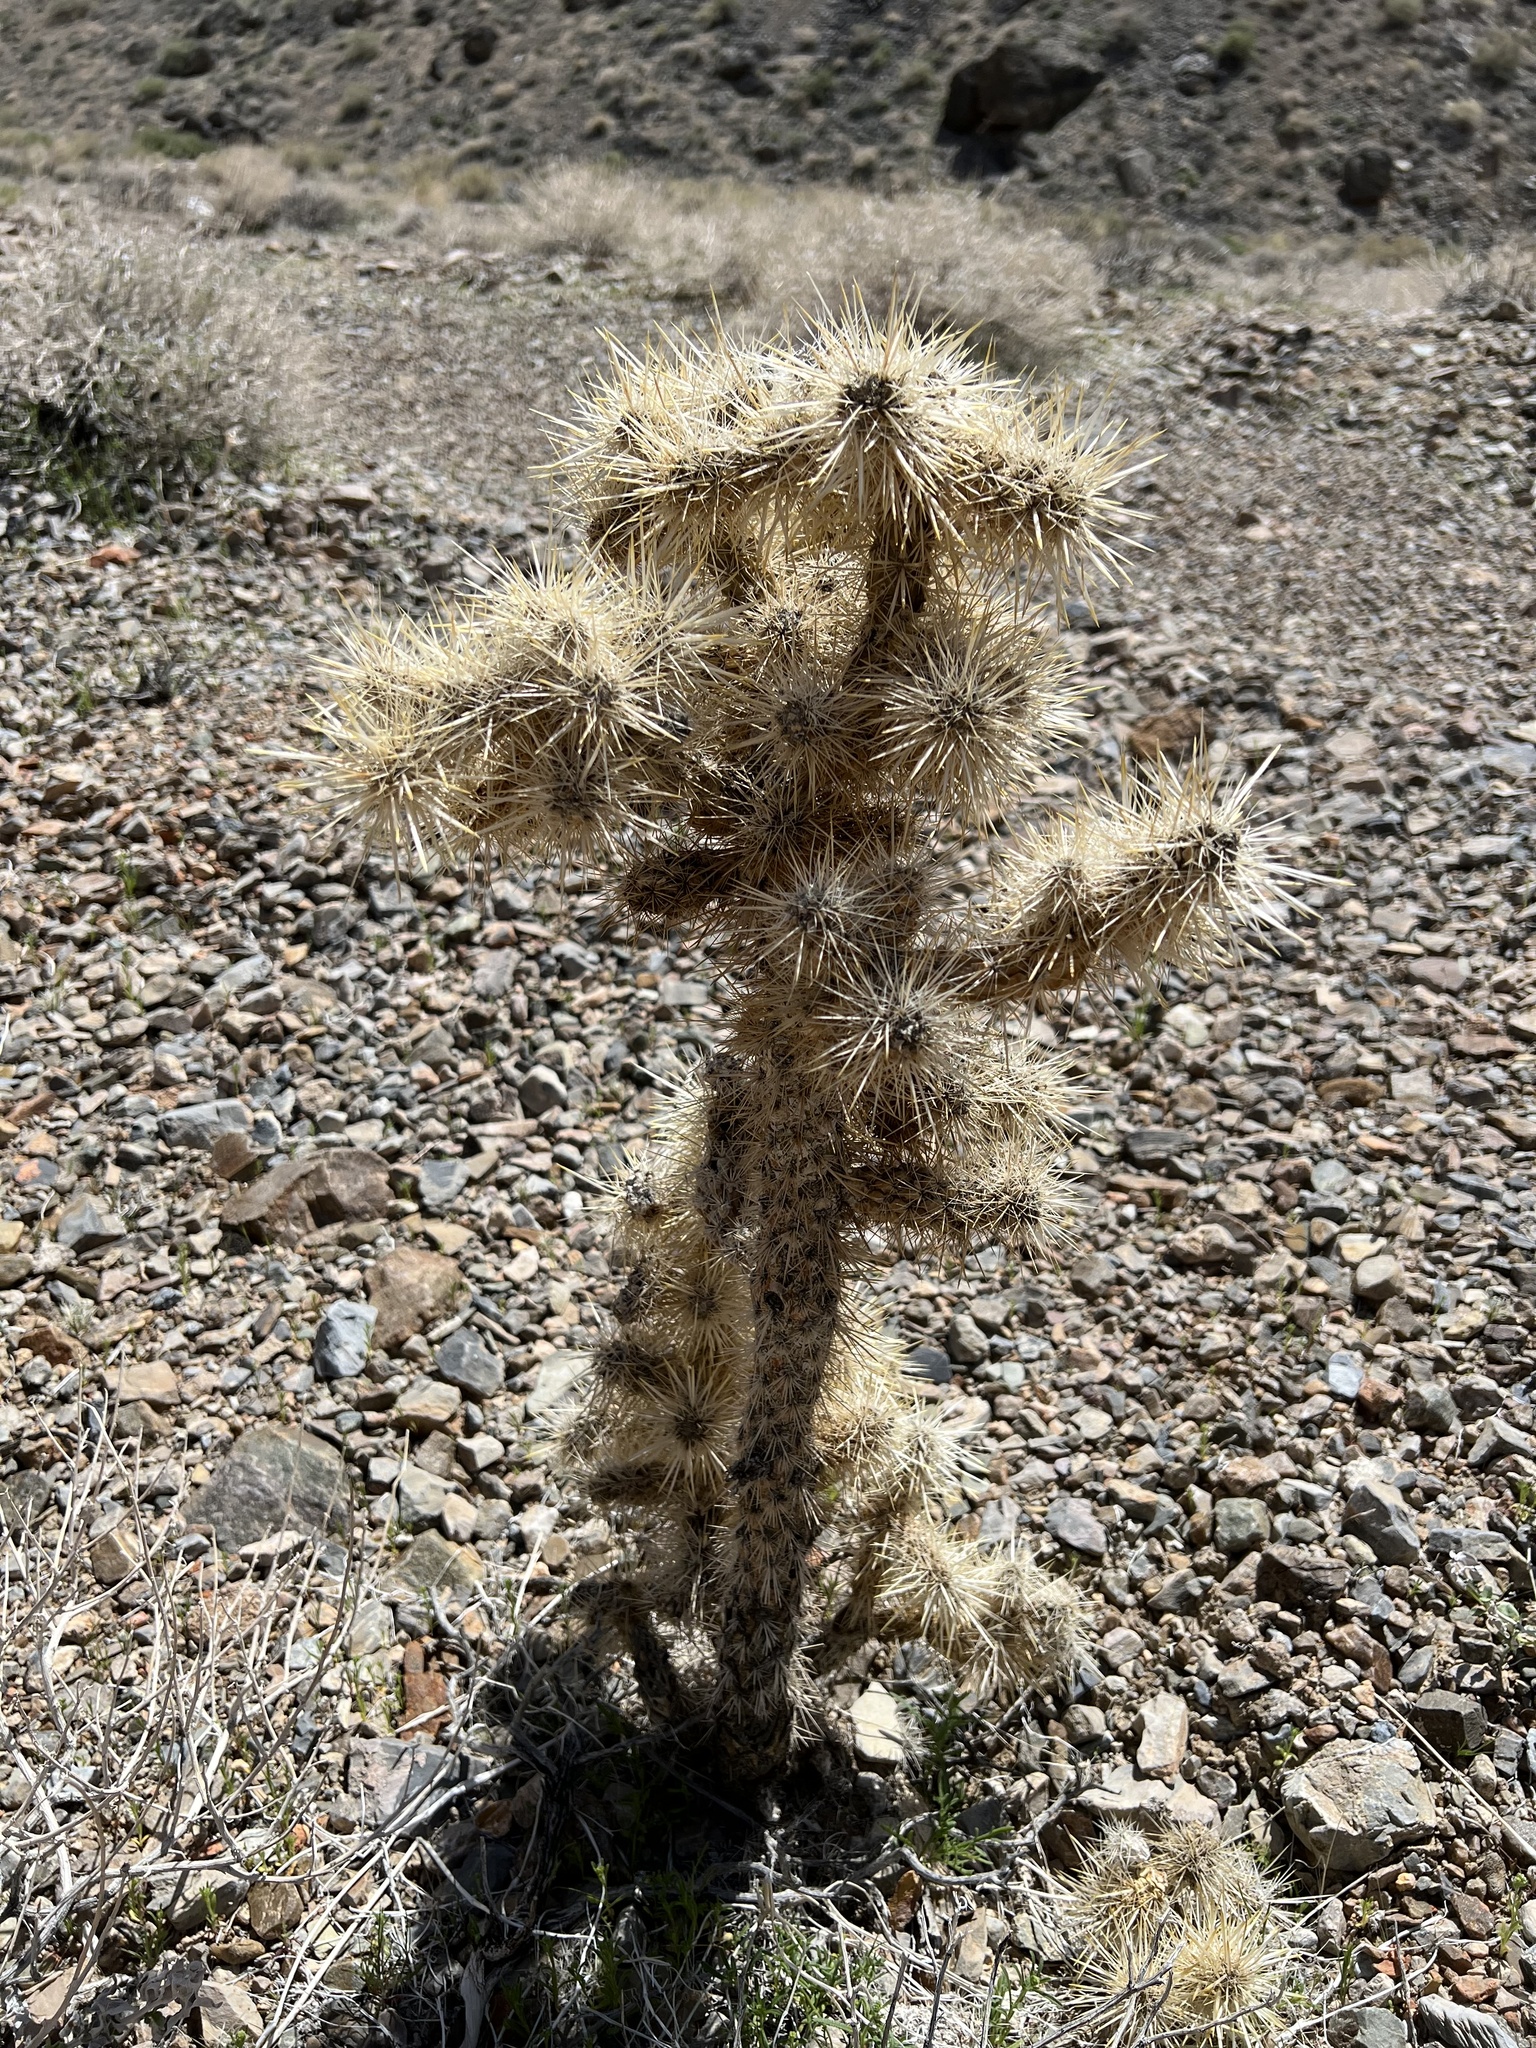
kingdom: Plantae
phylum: Tracheophyta
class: Magnoliopsida
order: Caryophyllales
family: Cactaceae
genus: Cylindropuntia
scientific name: Cylindropuntia echinocarpa
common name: Ground cholla
